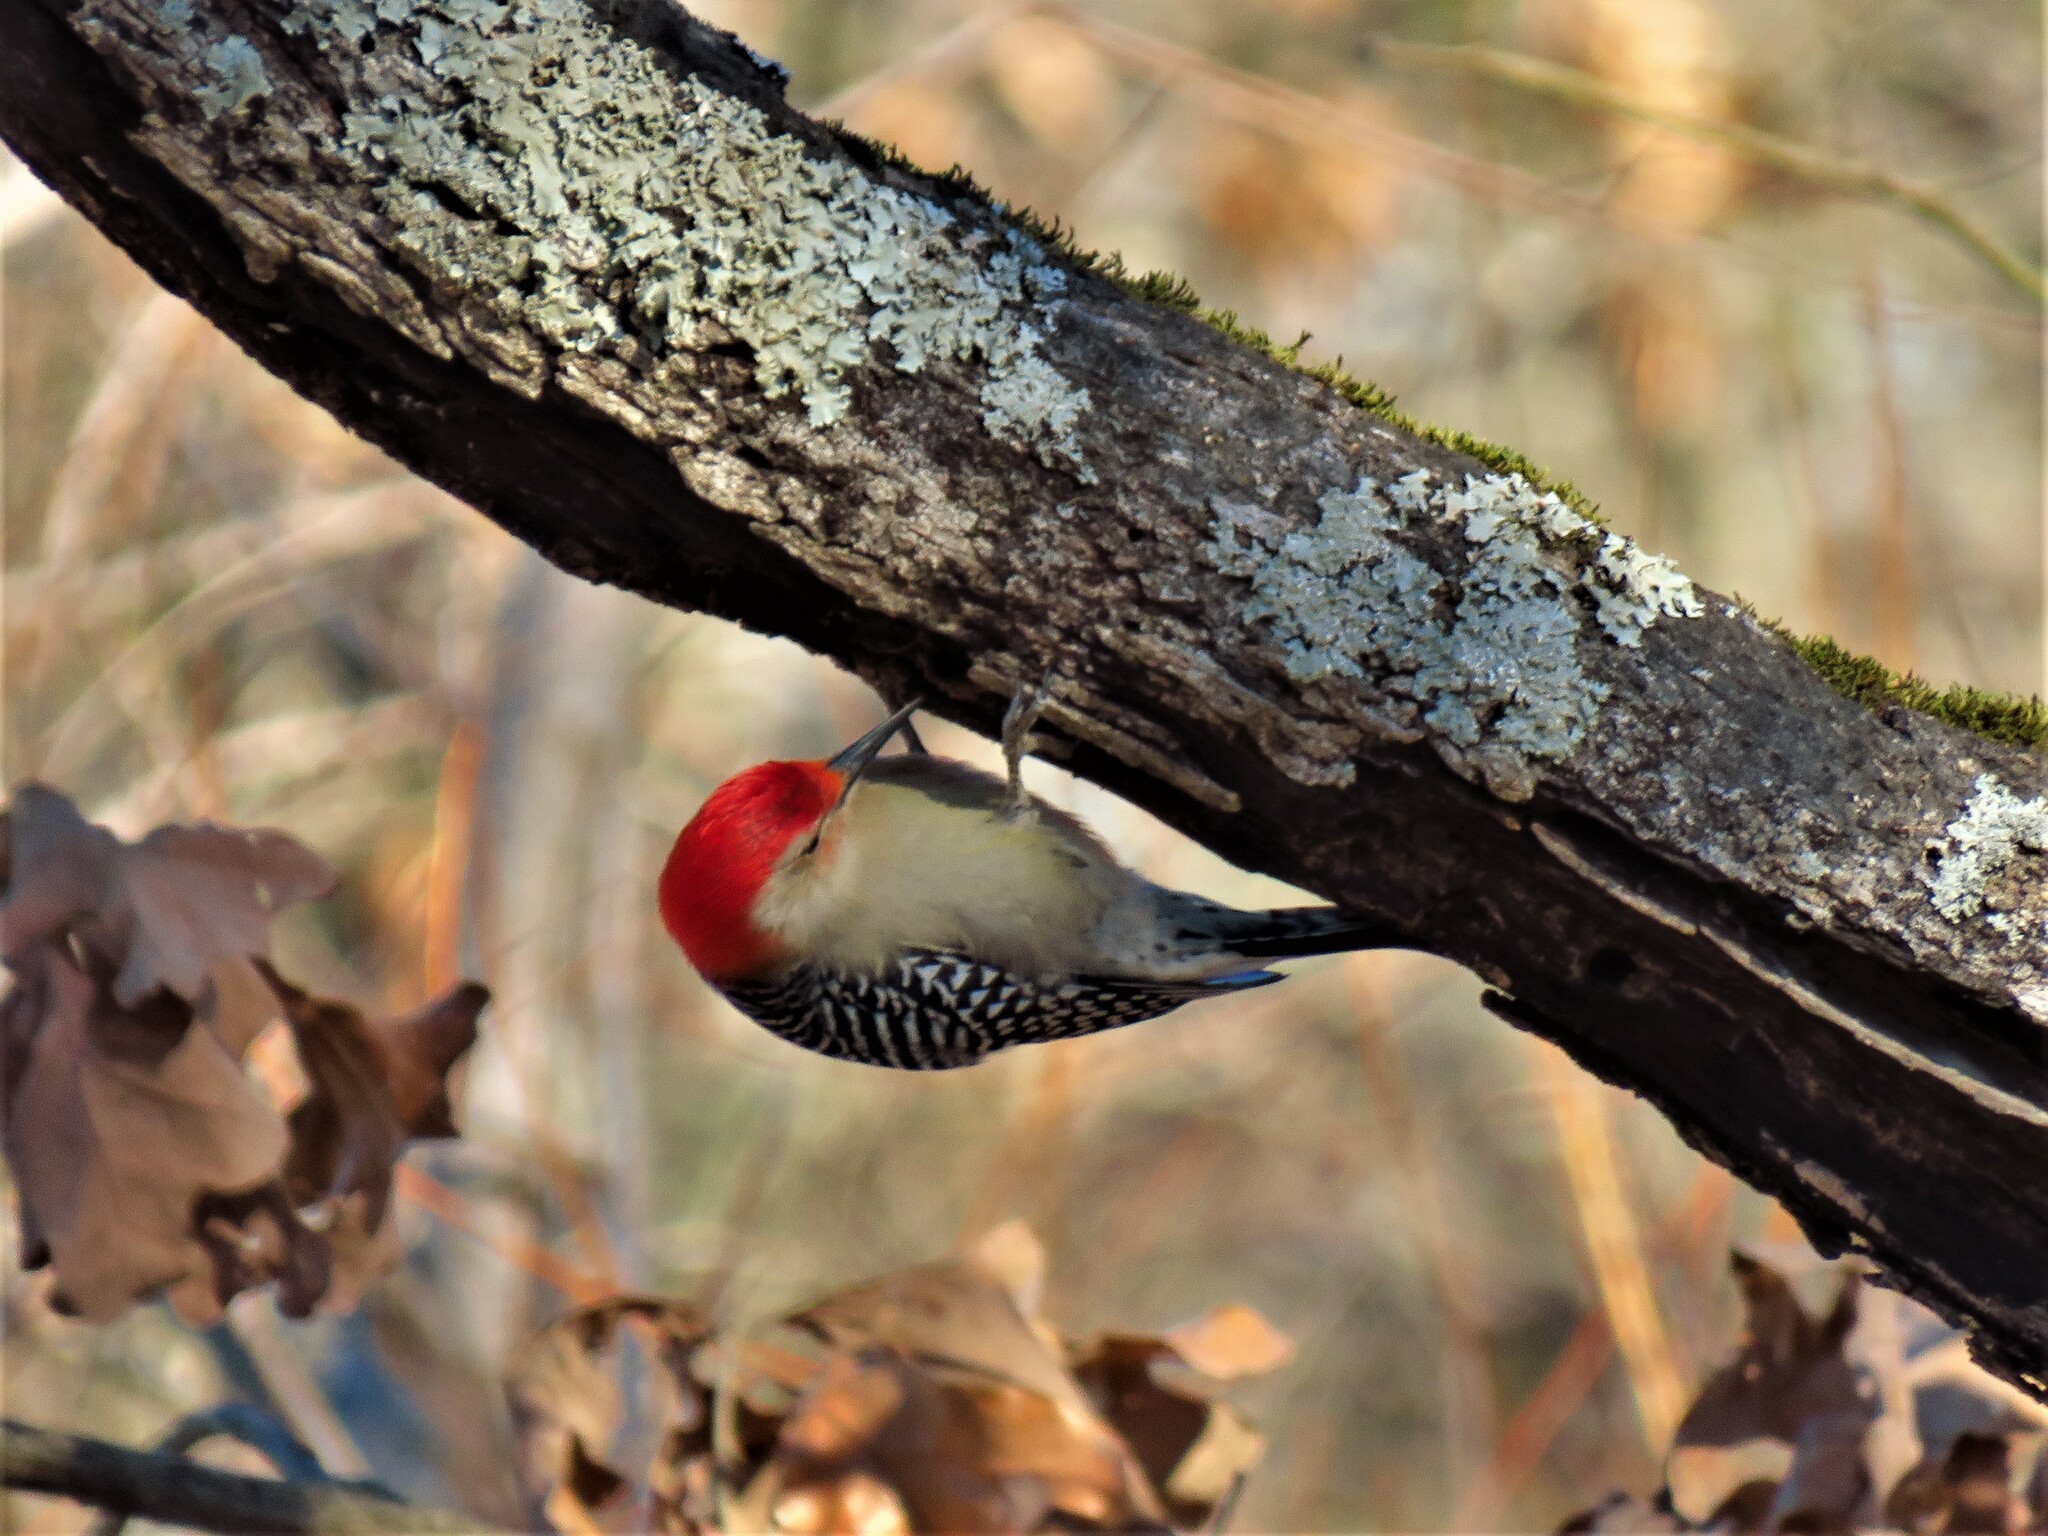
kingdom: Animalia
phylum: Chordata
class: Aves
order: Piciformes
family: Picidae
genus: Melanerpes
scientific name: Melanerpes carolinus
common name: Red-bellied woodpecker
